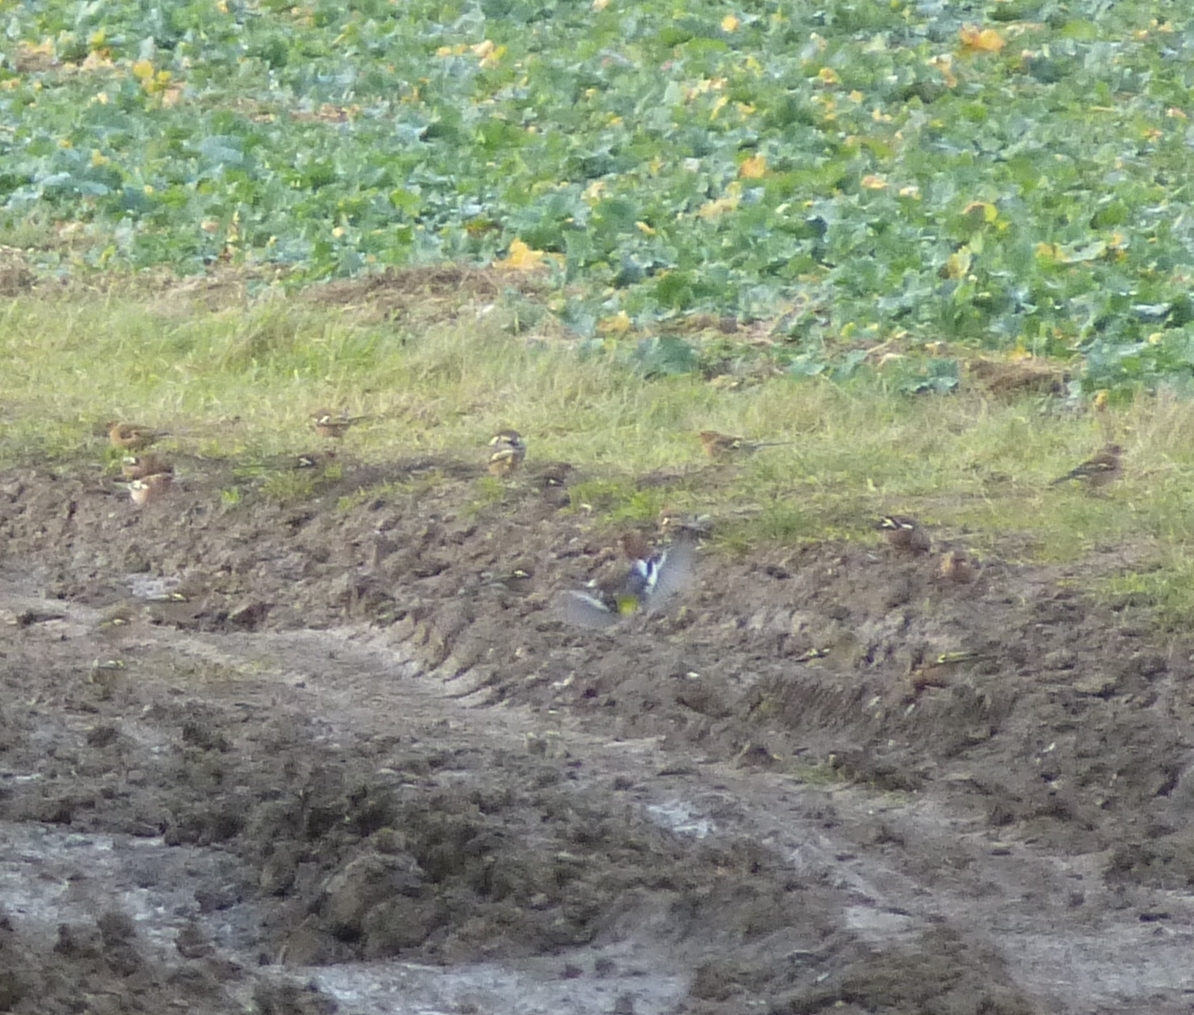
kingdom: Animalia
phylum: Chordata
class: Aves
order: Passeriformes
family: Fringillidae
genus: Fringilla
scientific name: Fringilla coelebs
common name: Common chaffinch
